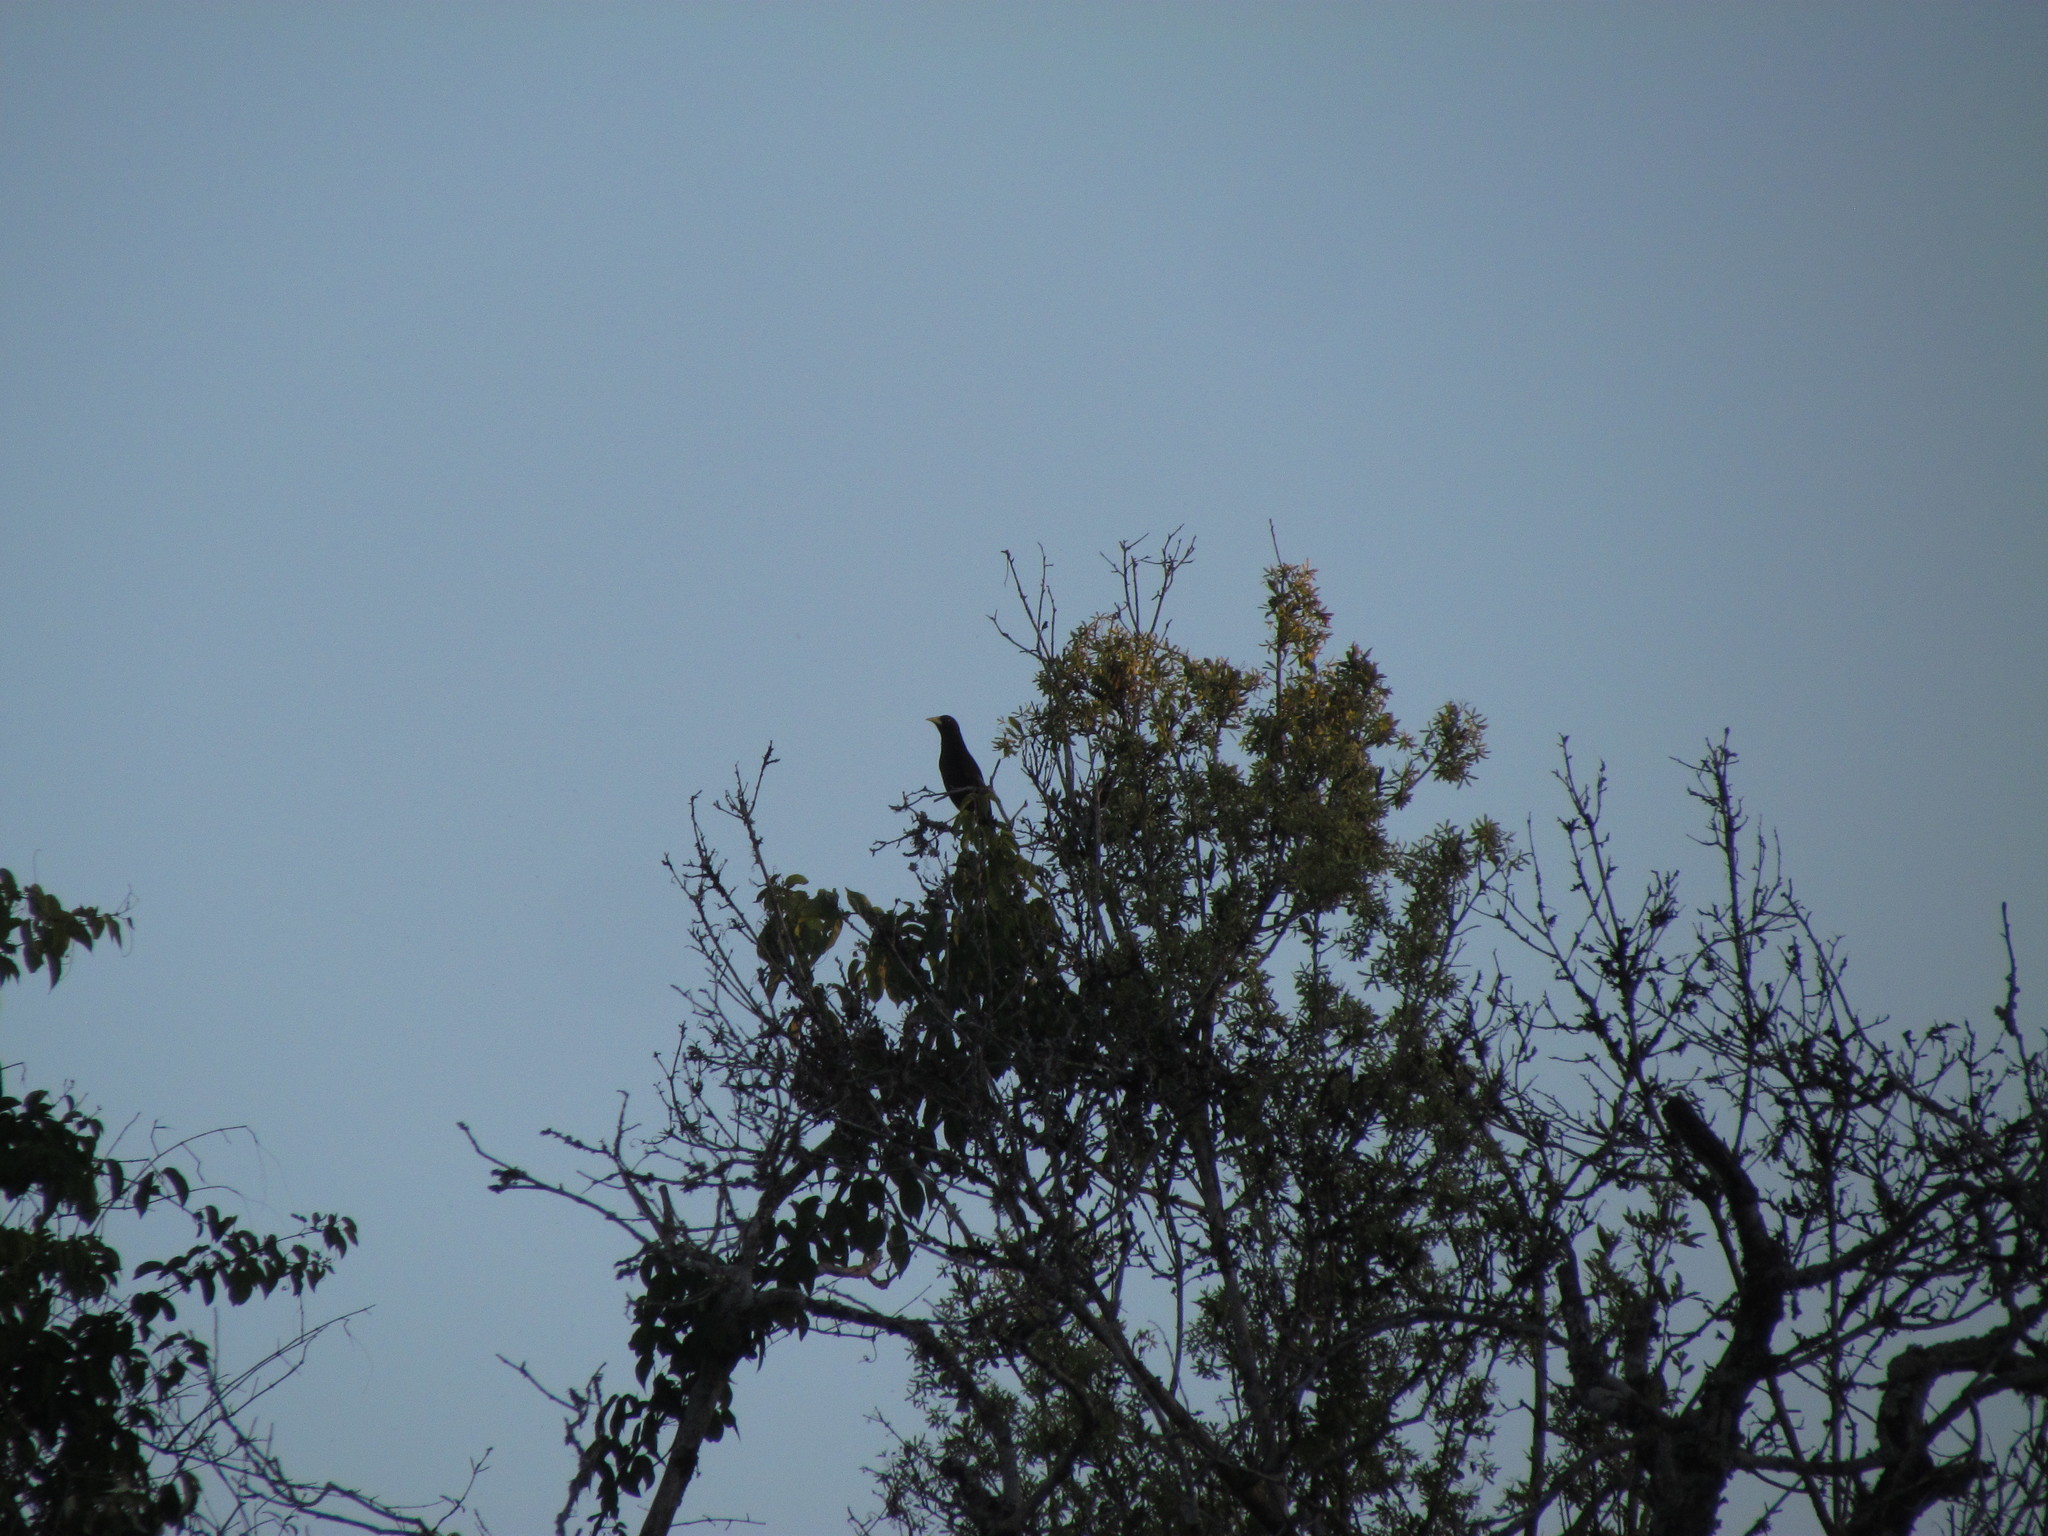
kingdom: Animalia
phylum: Chordata
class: Aves
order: Passeriformes
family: Icteridae
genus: Cacicus
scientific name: Cacicus haemorrhous
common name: Red-rumped cacique
